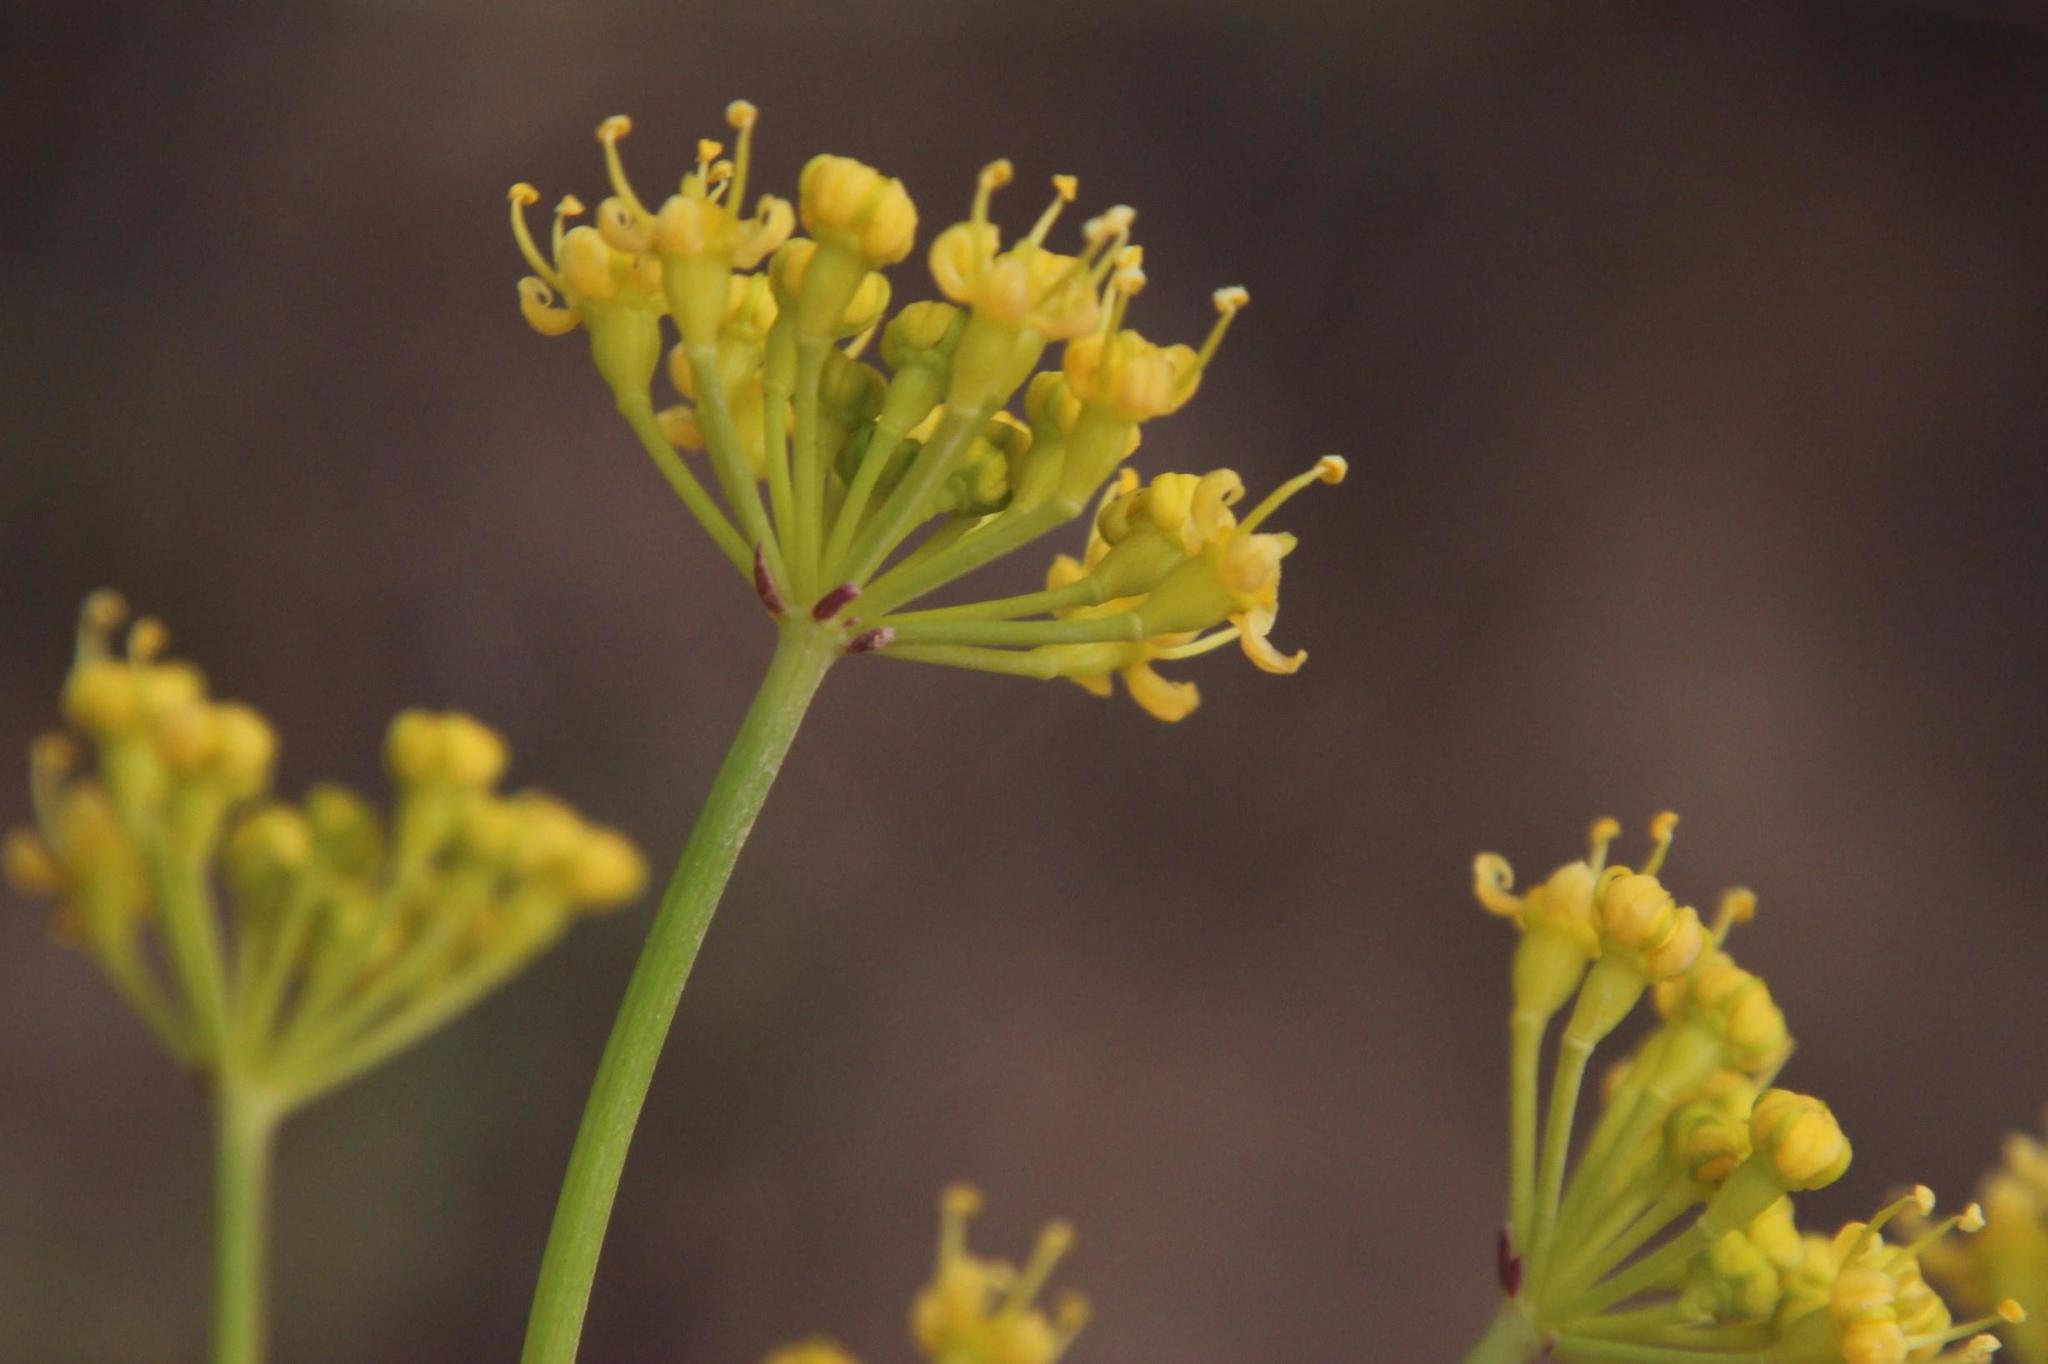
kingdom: Plantae
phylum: Tracheophyta
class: Magnoliopsida
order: Apiales
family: Apiaceae
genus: Afrosciadium
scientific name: Afrosciadium caffrum
